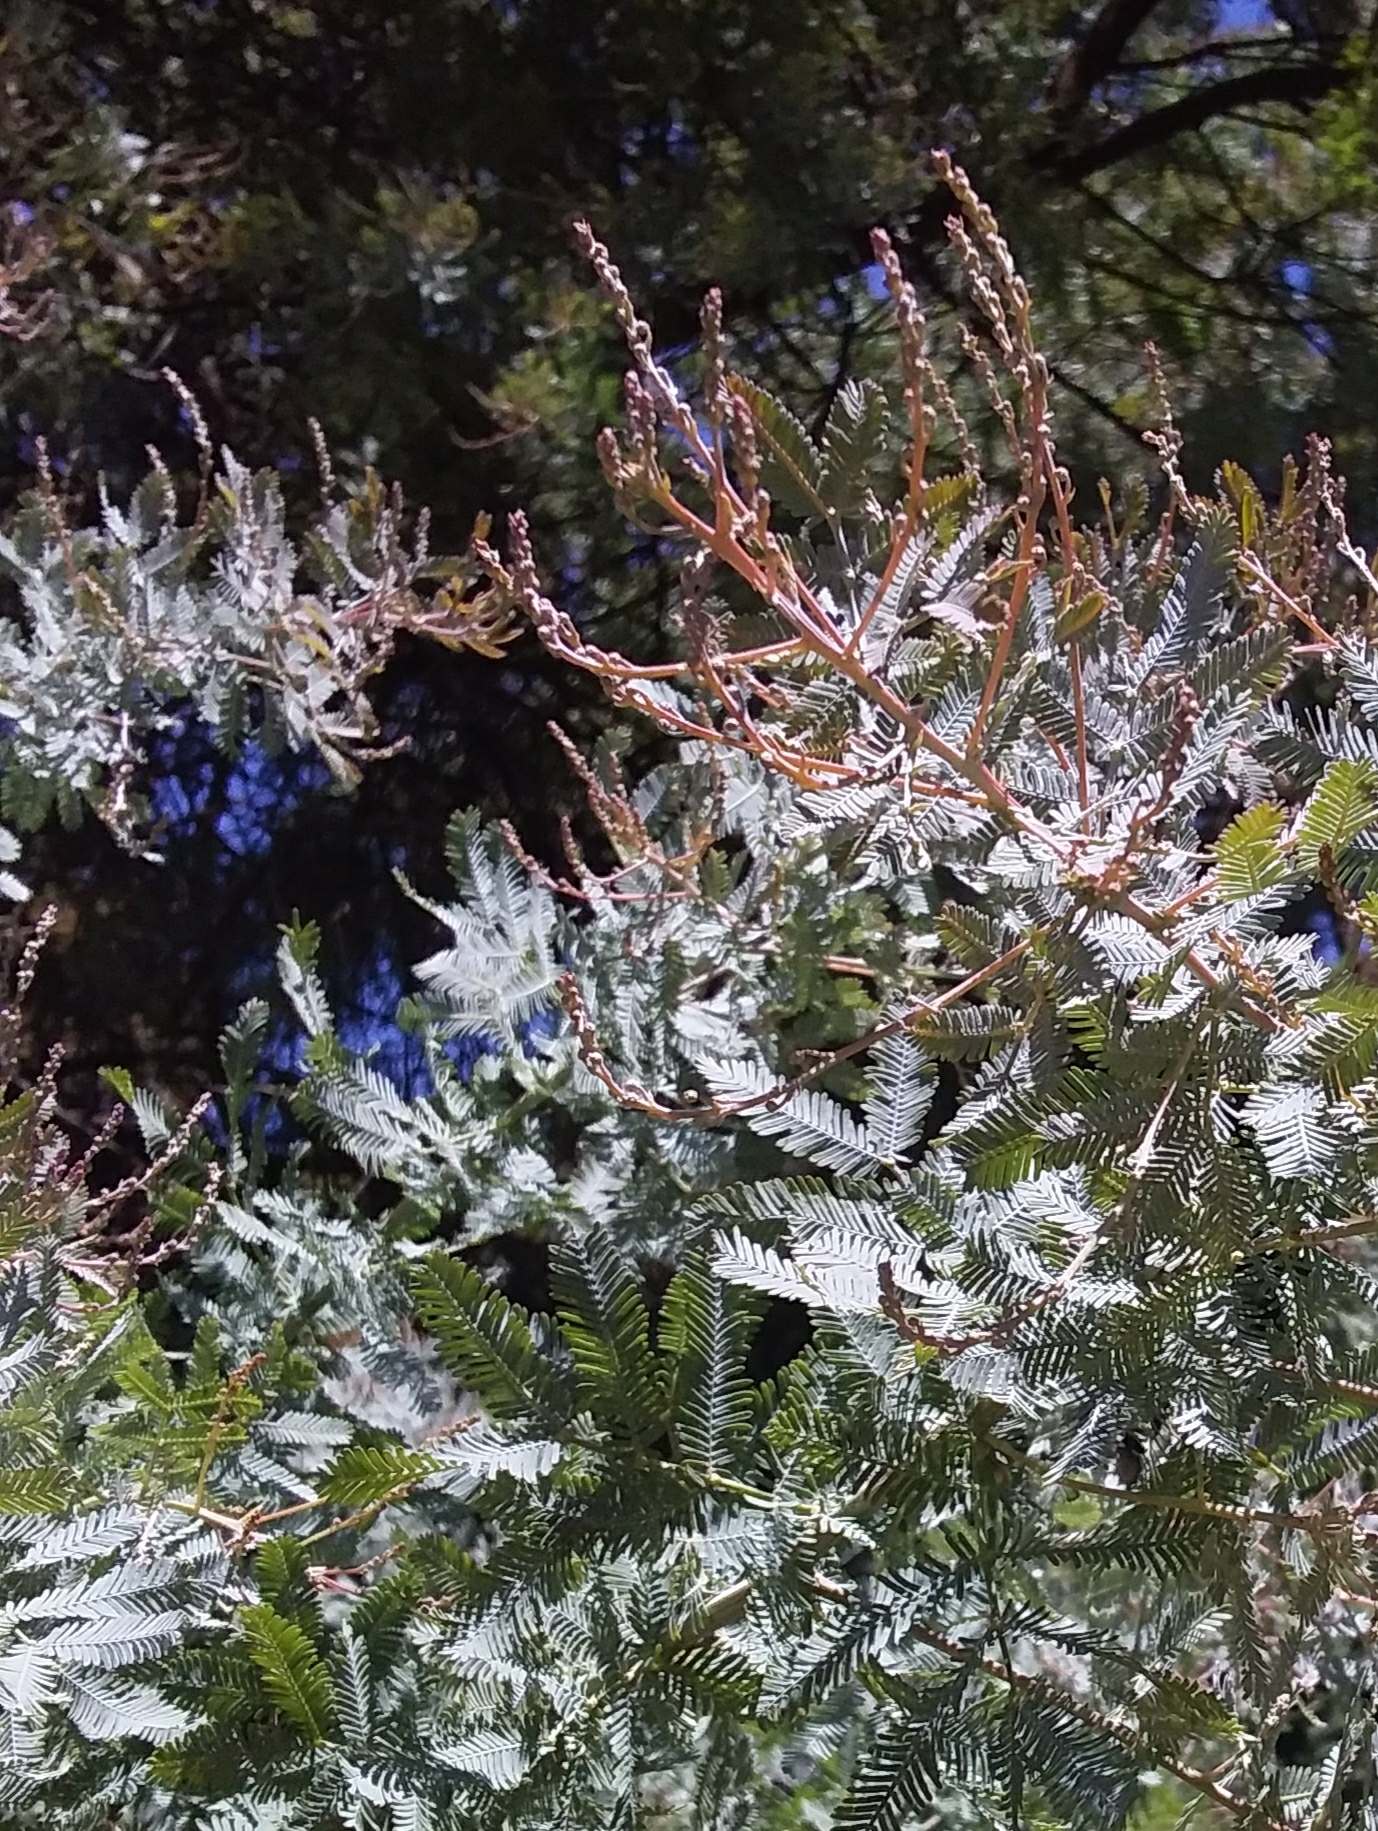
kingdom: Plantae
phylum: Tracheophyta
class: Magnoliopsida
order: Fabales
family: Fabaceae
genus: Acacia
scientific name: Acacia baileyana
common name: Cootamundra wattle
